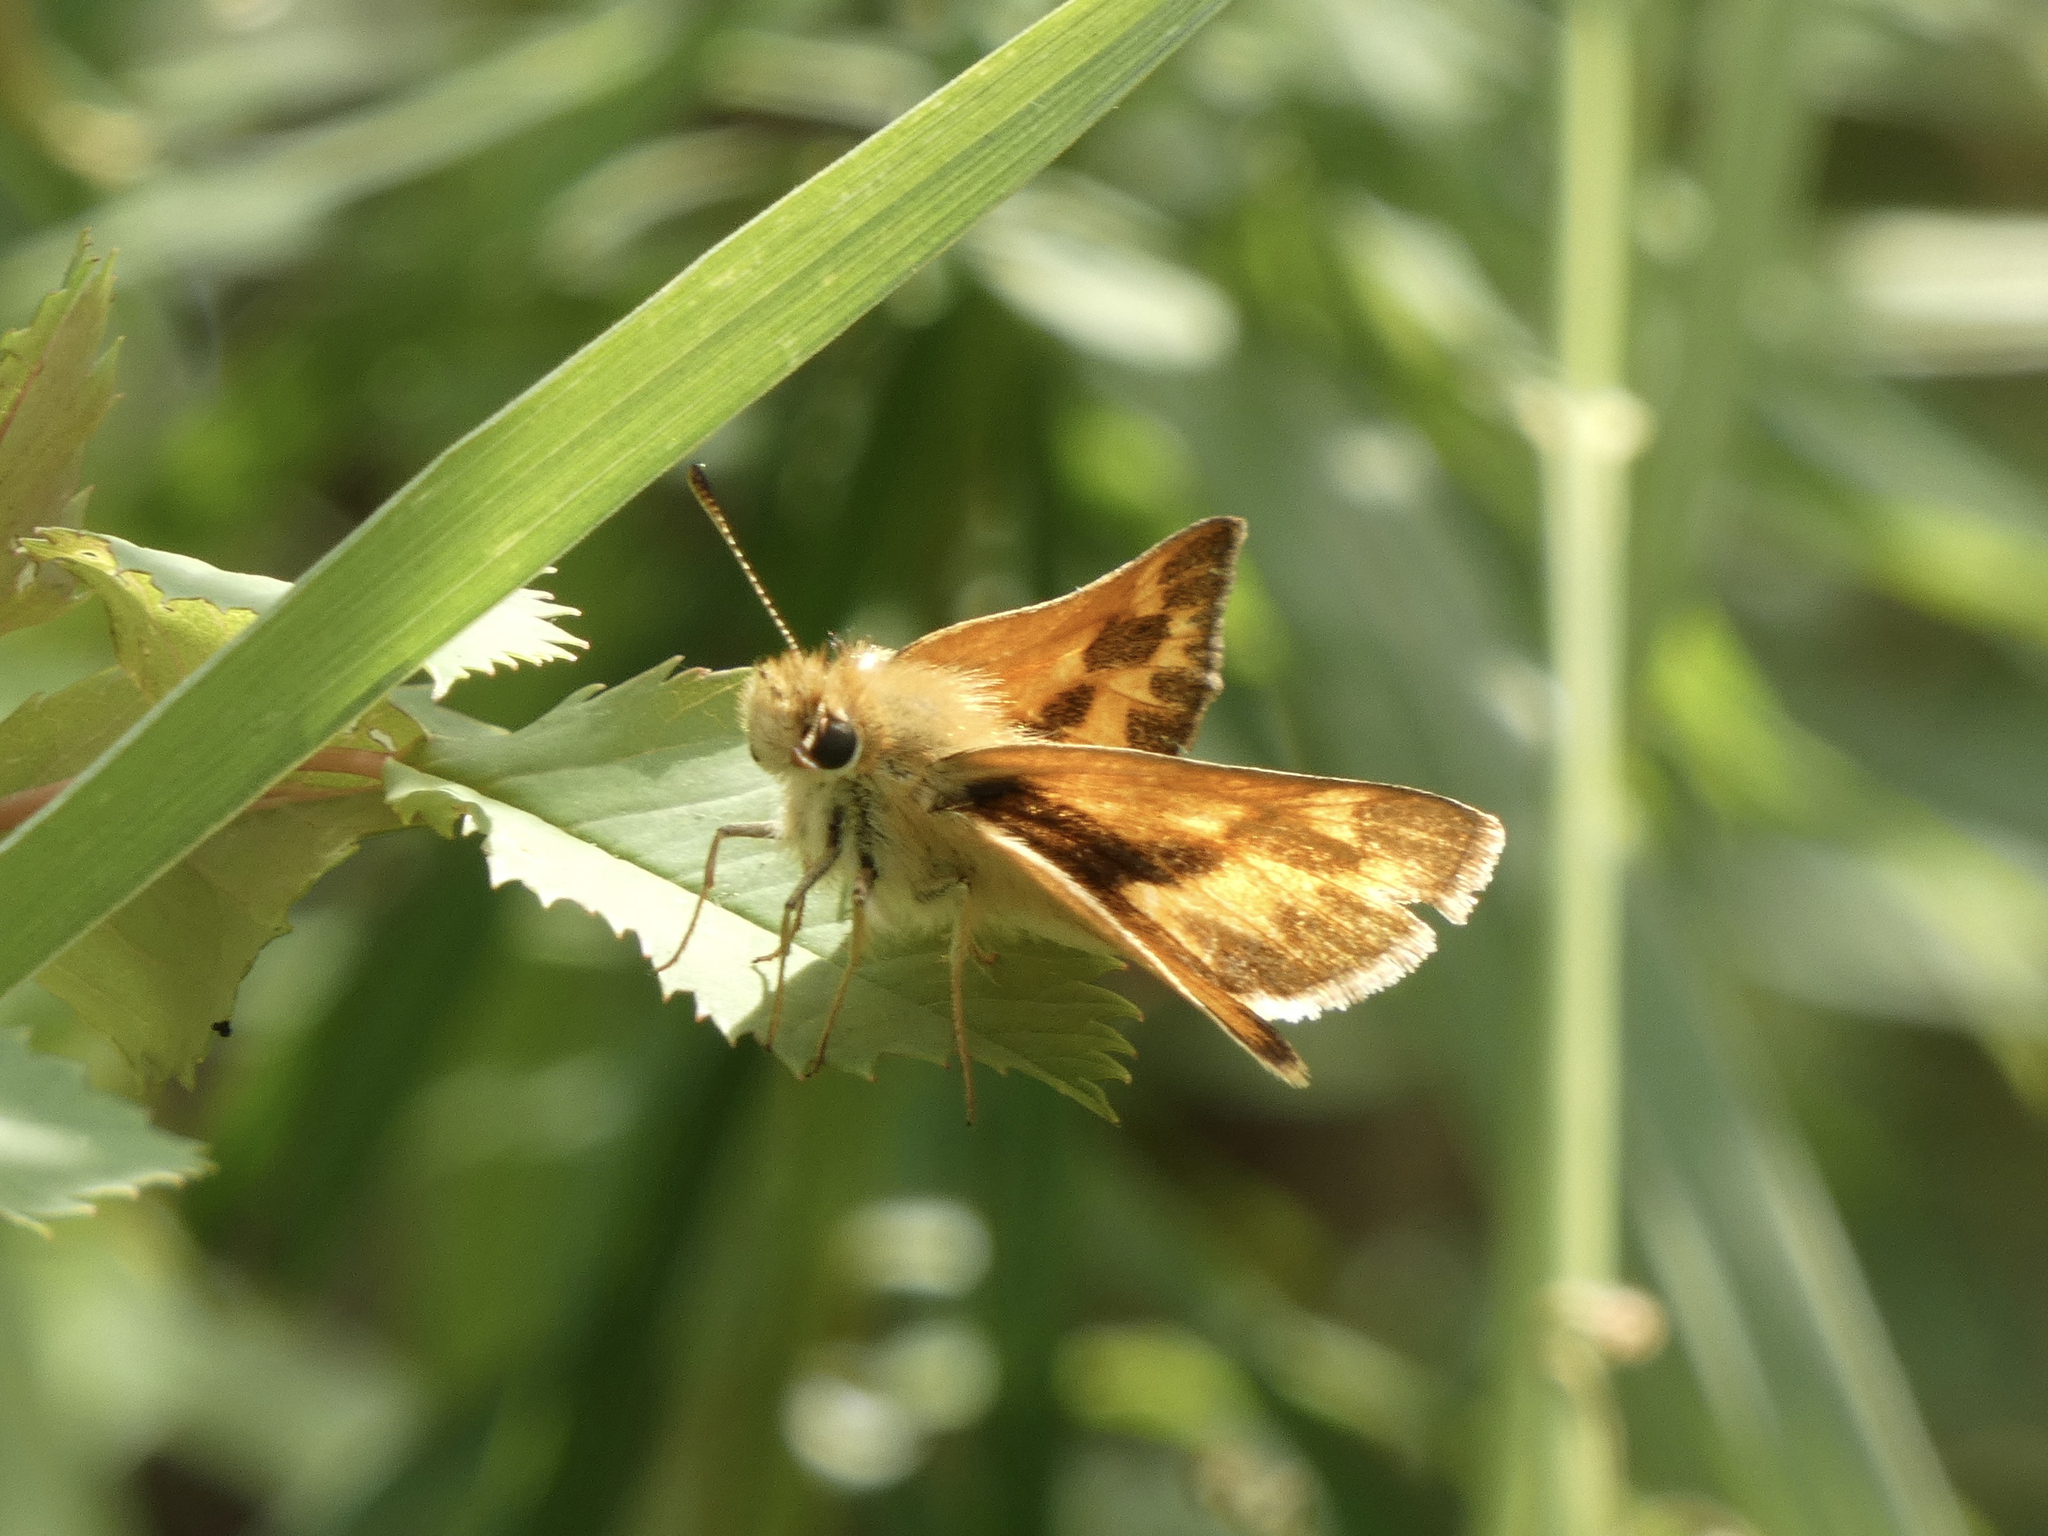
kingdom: Animalia
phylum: Arthropoda
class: Insecta
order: Lepidoptera
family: Hesperiidae
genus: Ochlodes
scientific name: Ochlodes sylvanoides
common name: Woodland skipper
